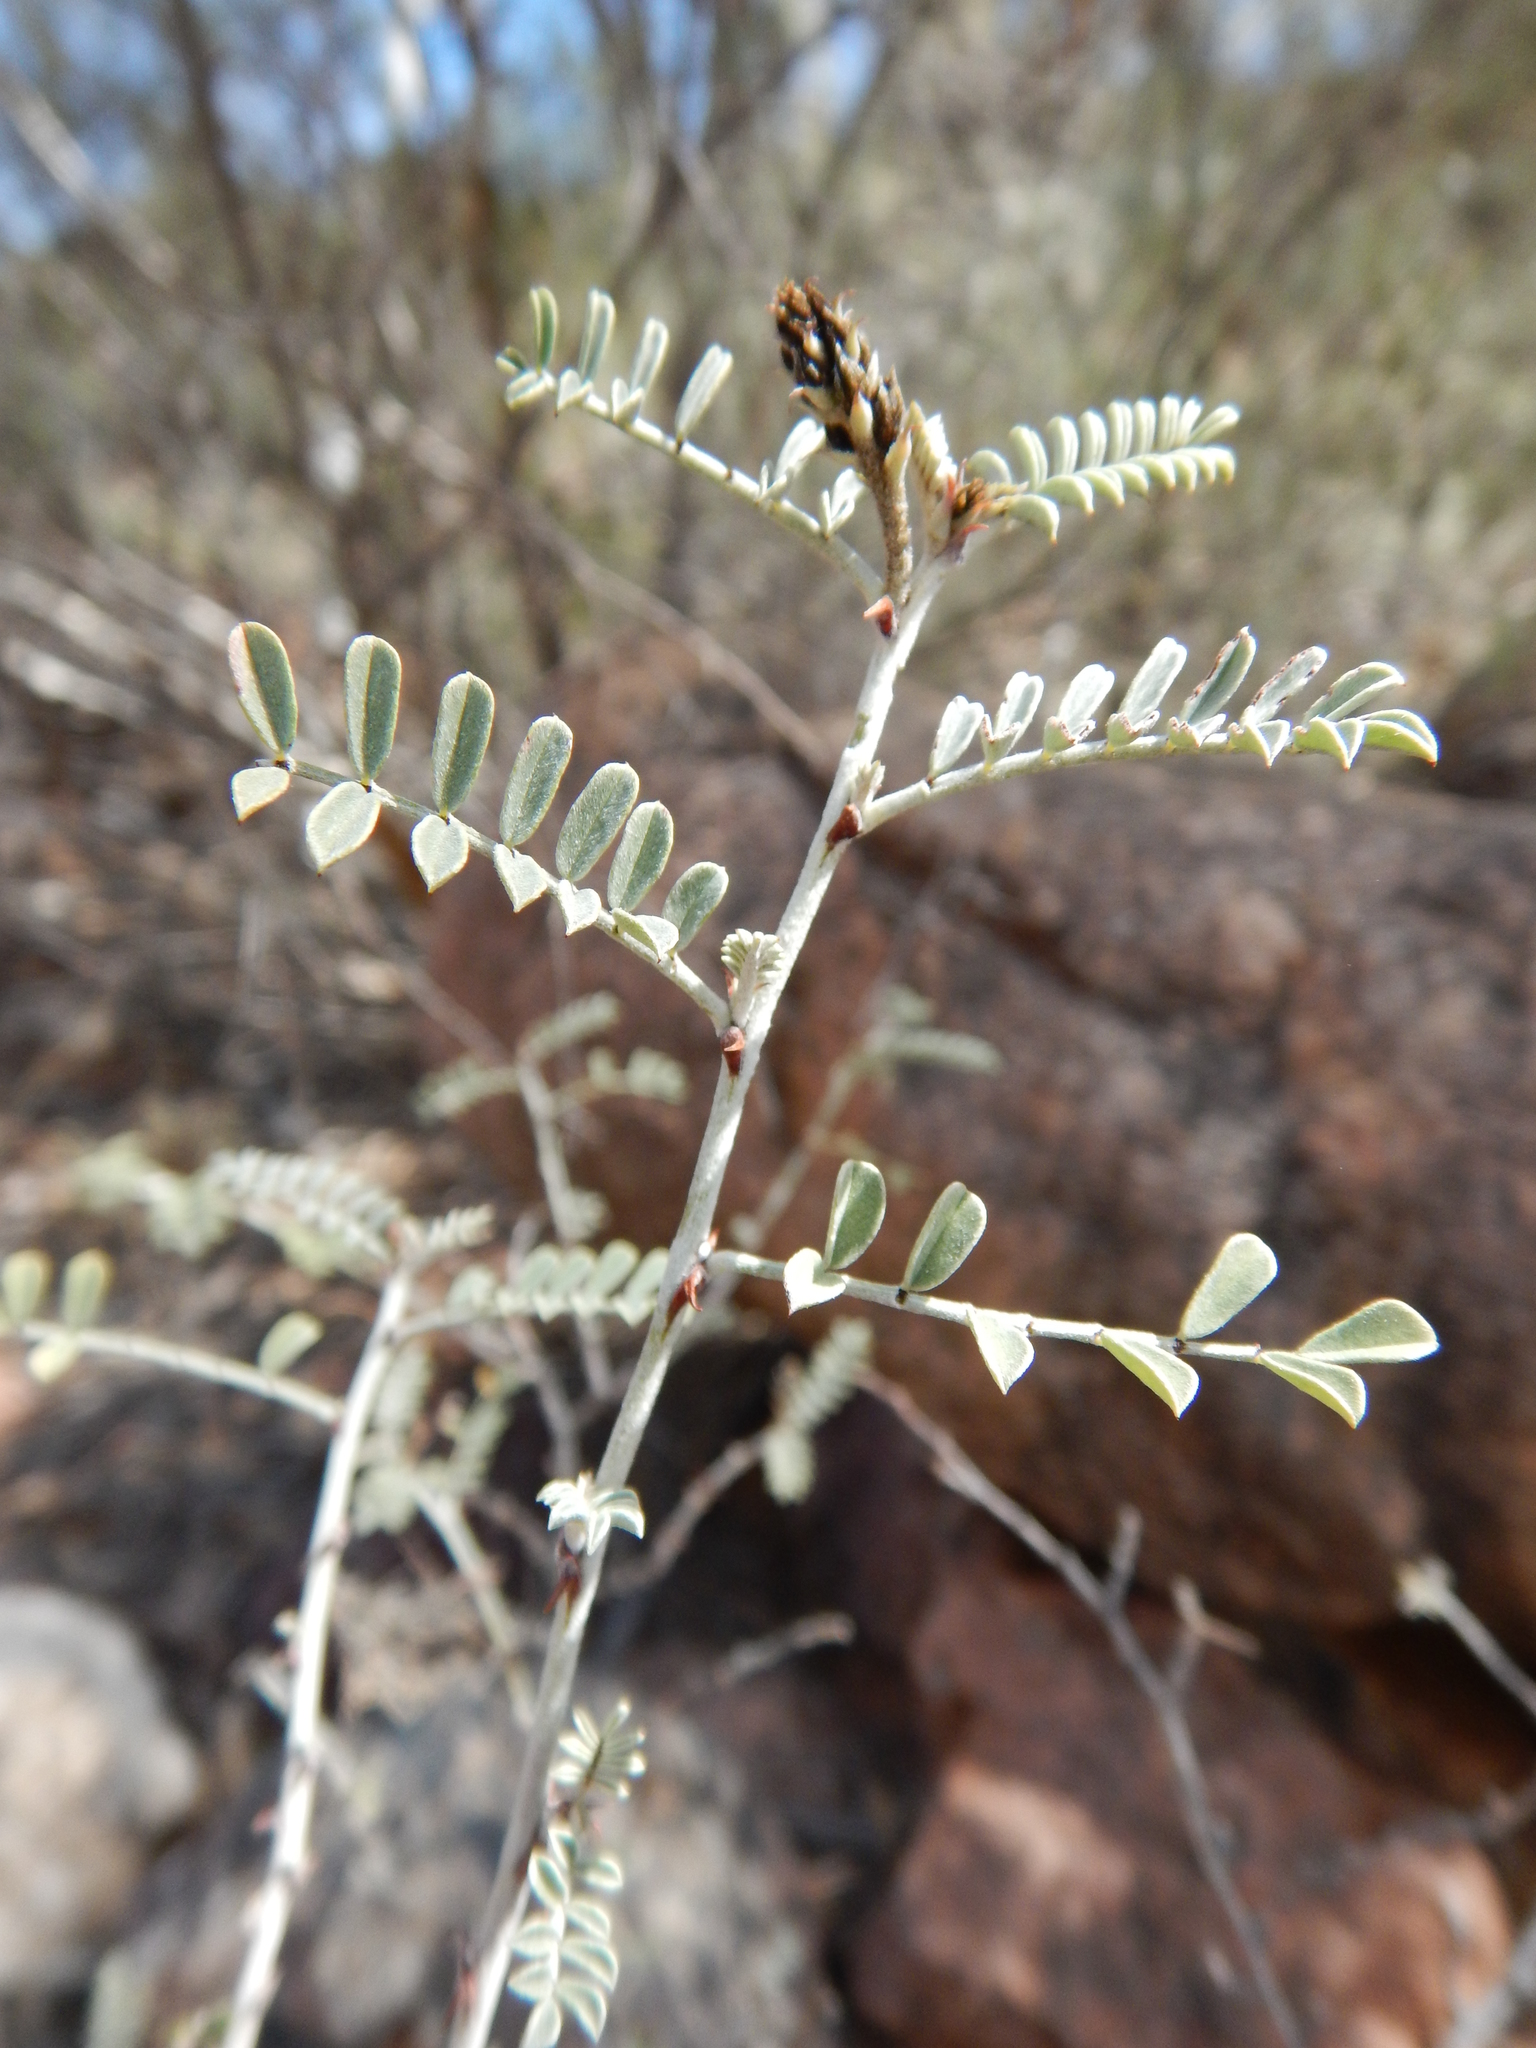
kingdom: Plantae
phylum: Tracheophyta
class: Magnoliopsida
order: Fabales
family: Fabaceae
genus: Indigofera
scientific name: Indigofera longibractea
